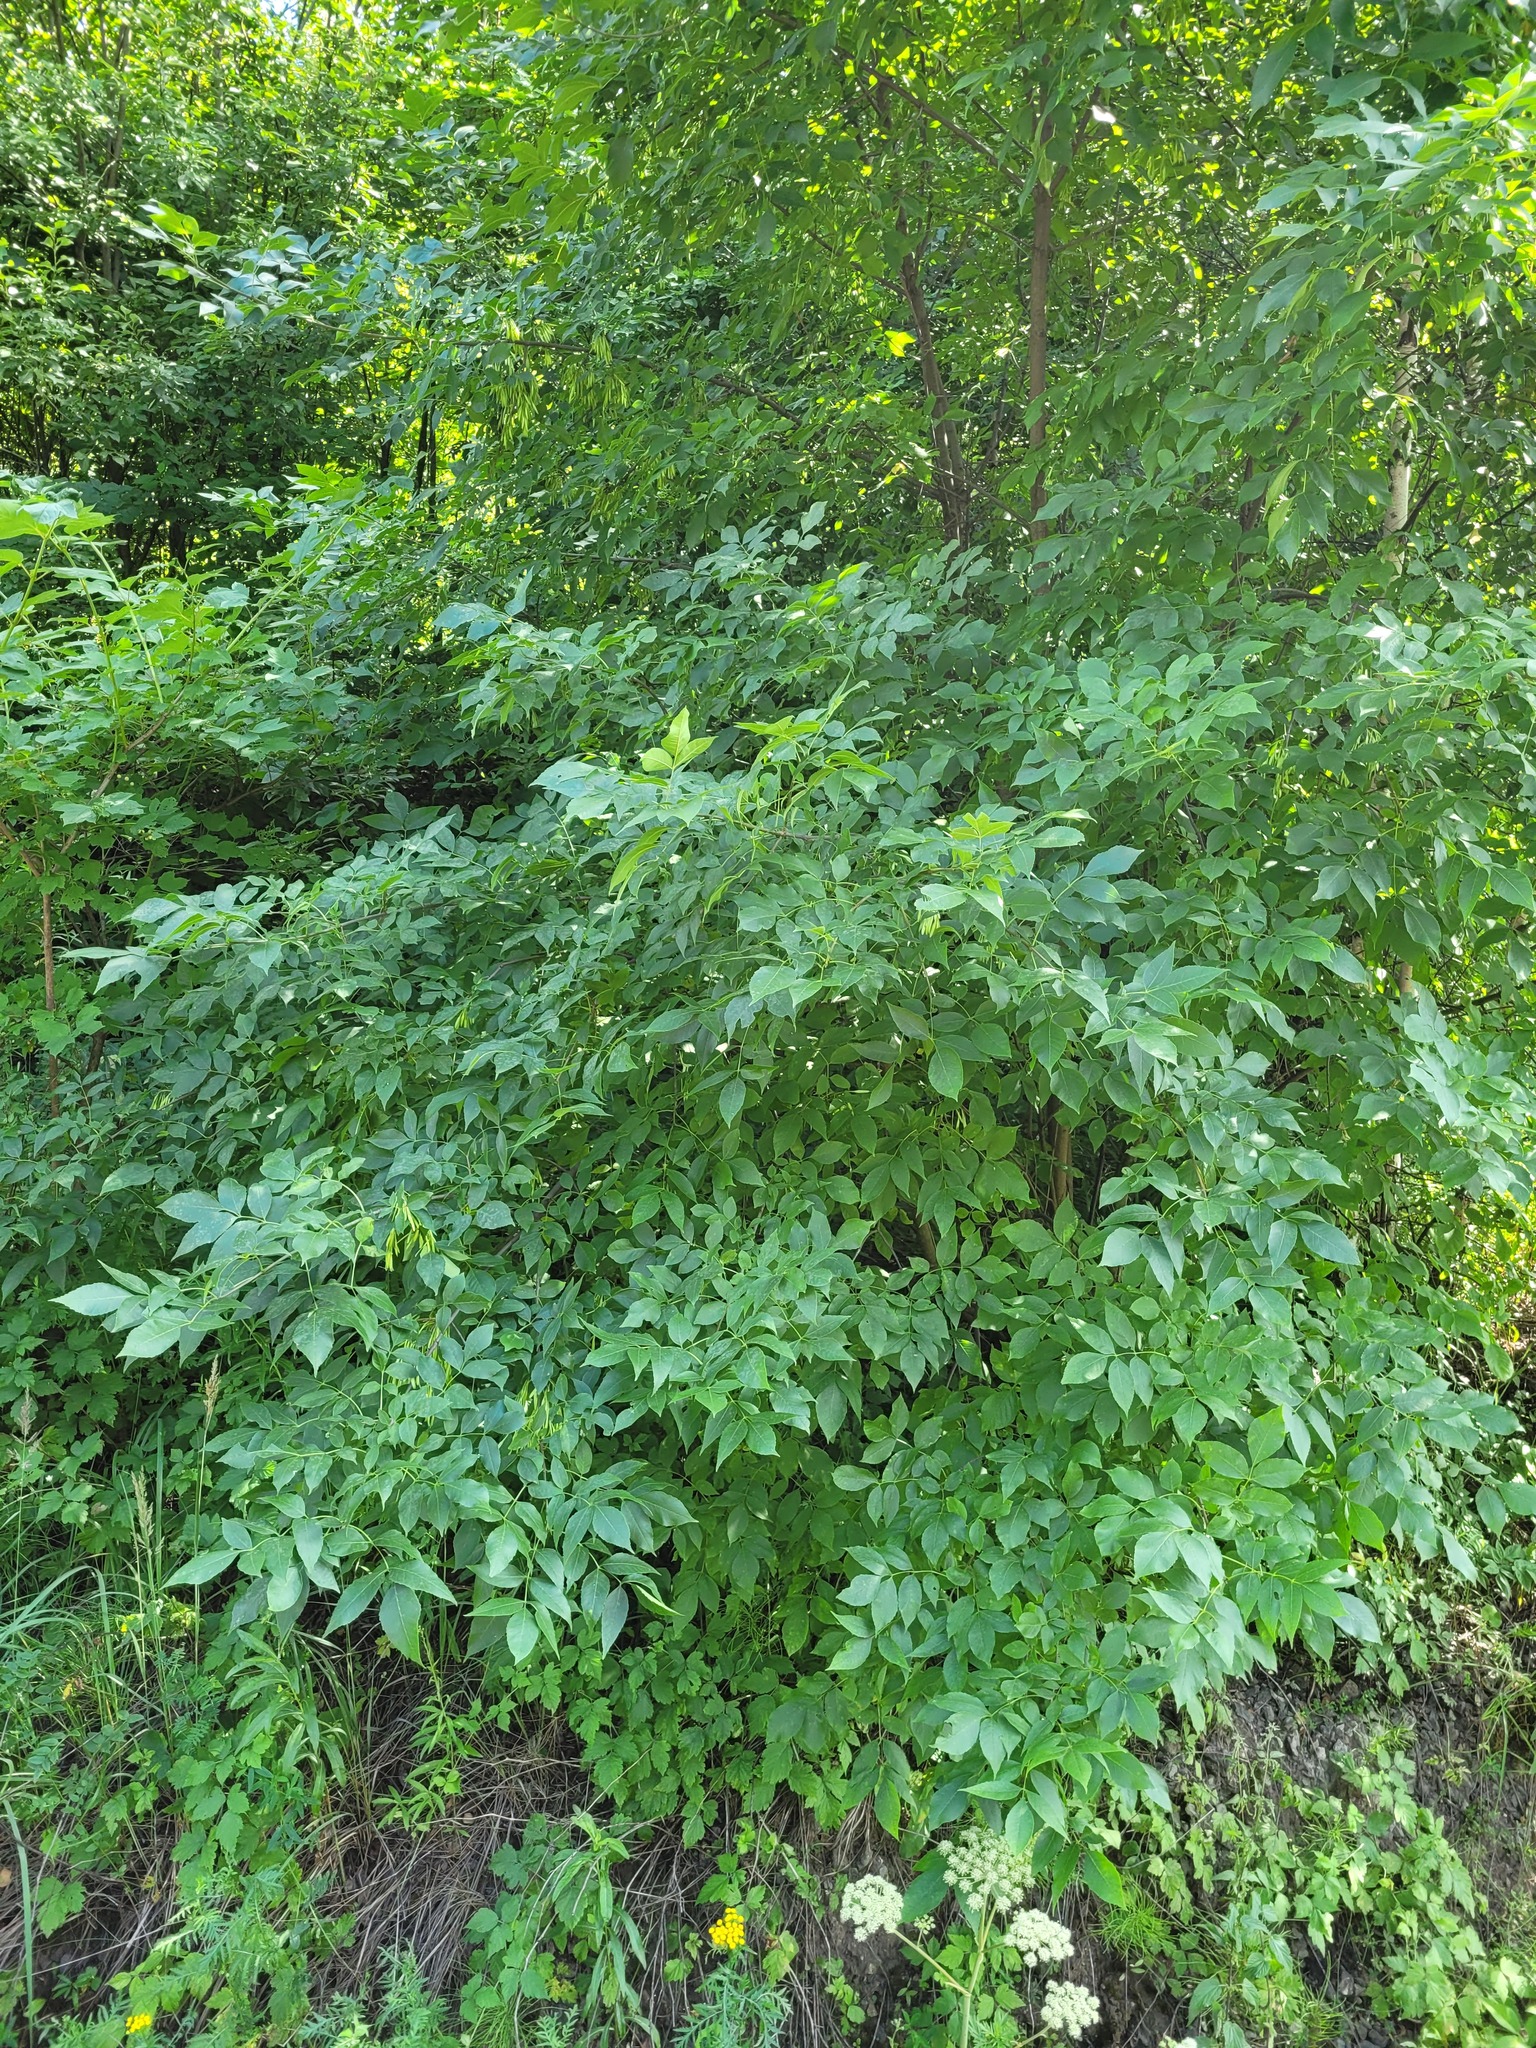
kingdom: Plantae
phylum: Tracheophyta
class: Magnoliopsida
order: Lamiales
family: Oleaceae
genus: Fraxinus
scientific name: Fraxinus pennsylvanica
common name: Green ash
